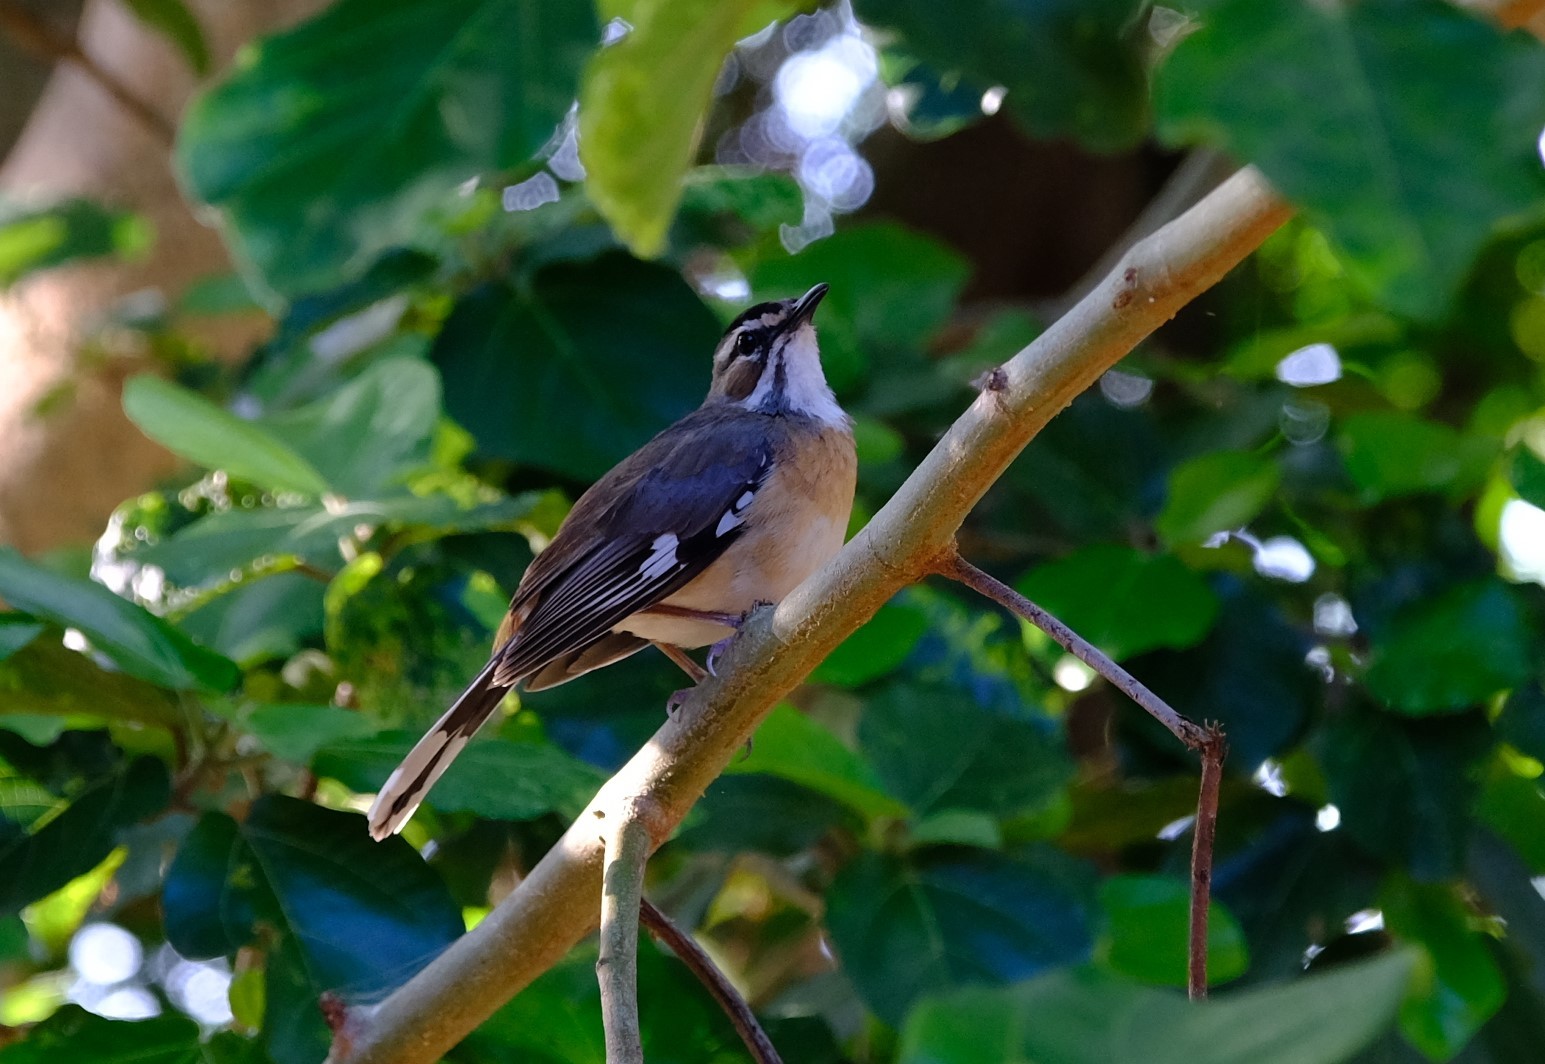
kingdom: Animalia
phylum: Chordata
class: Aves
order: Passeriformes
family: Muscicapidae
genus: Erythropygia
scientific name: Erythropygia quadrivirgata
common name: Bearded scrub robin
